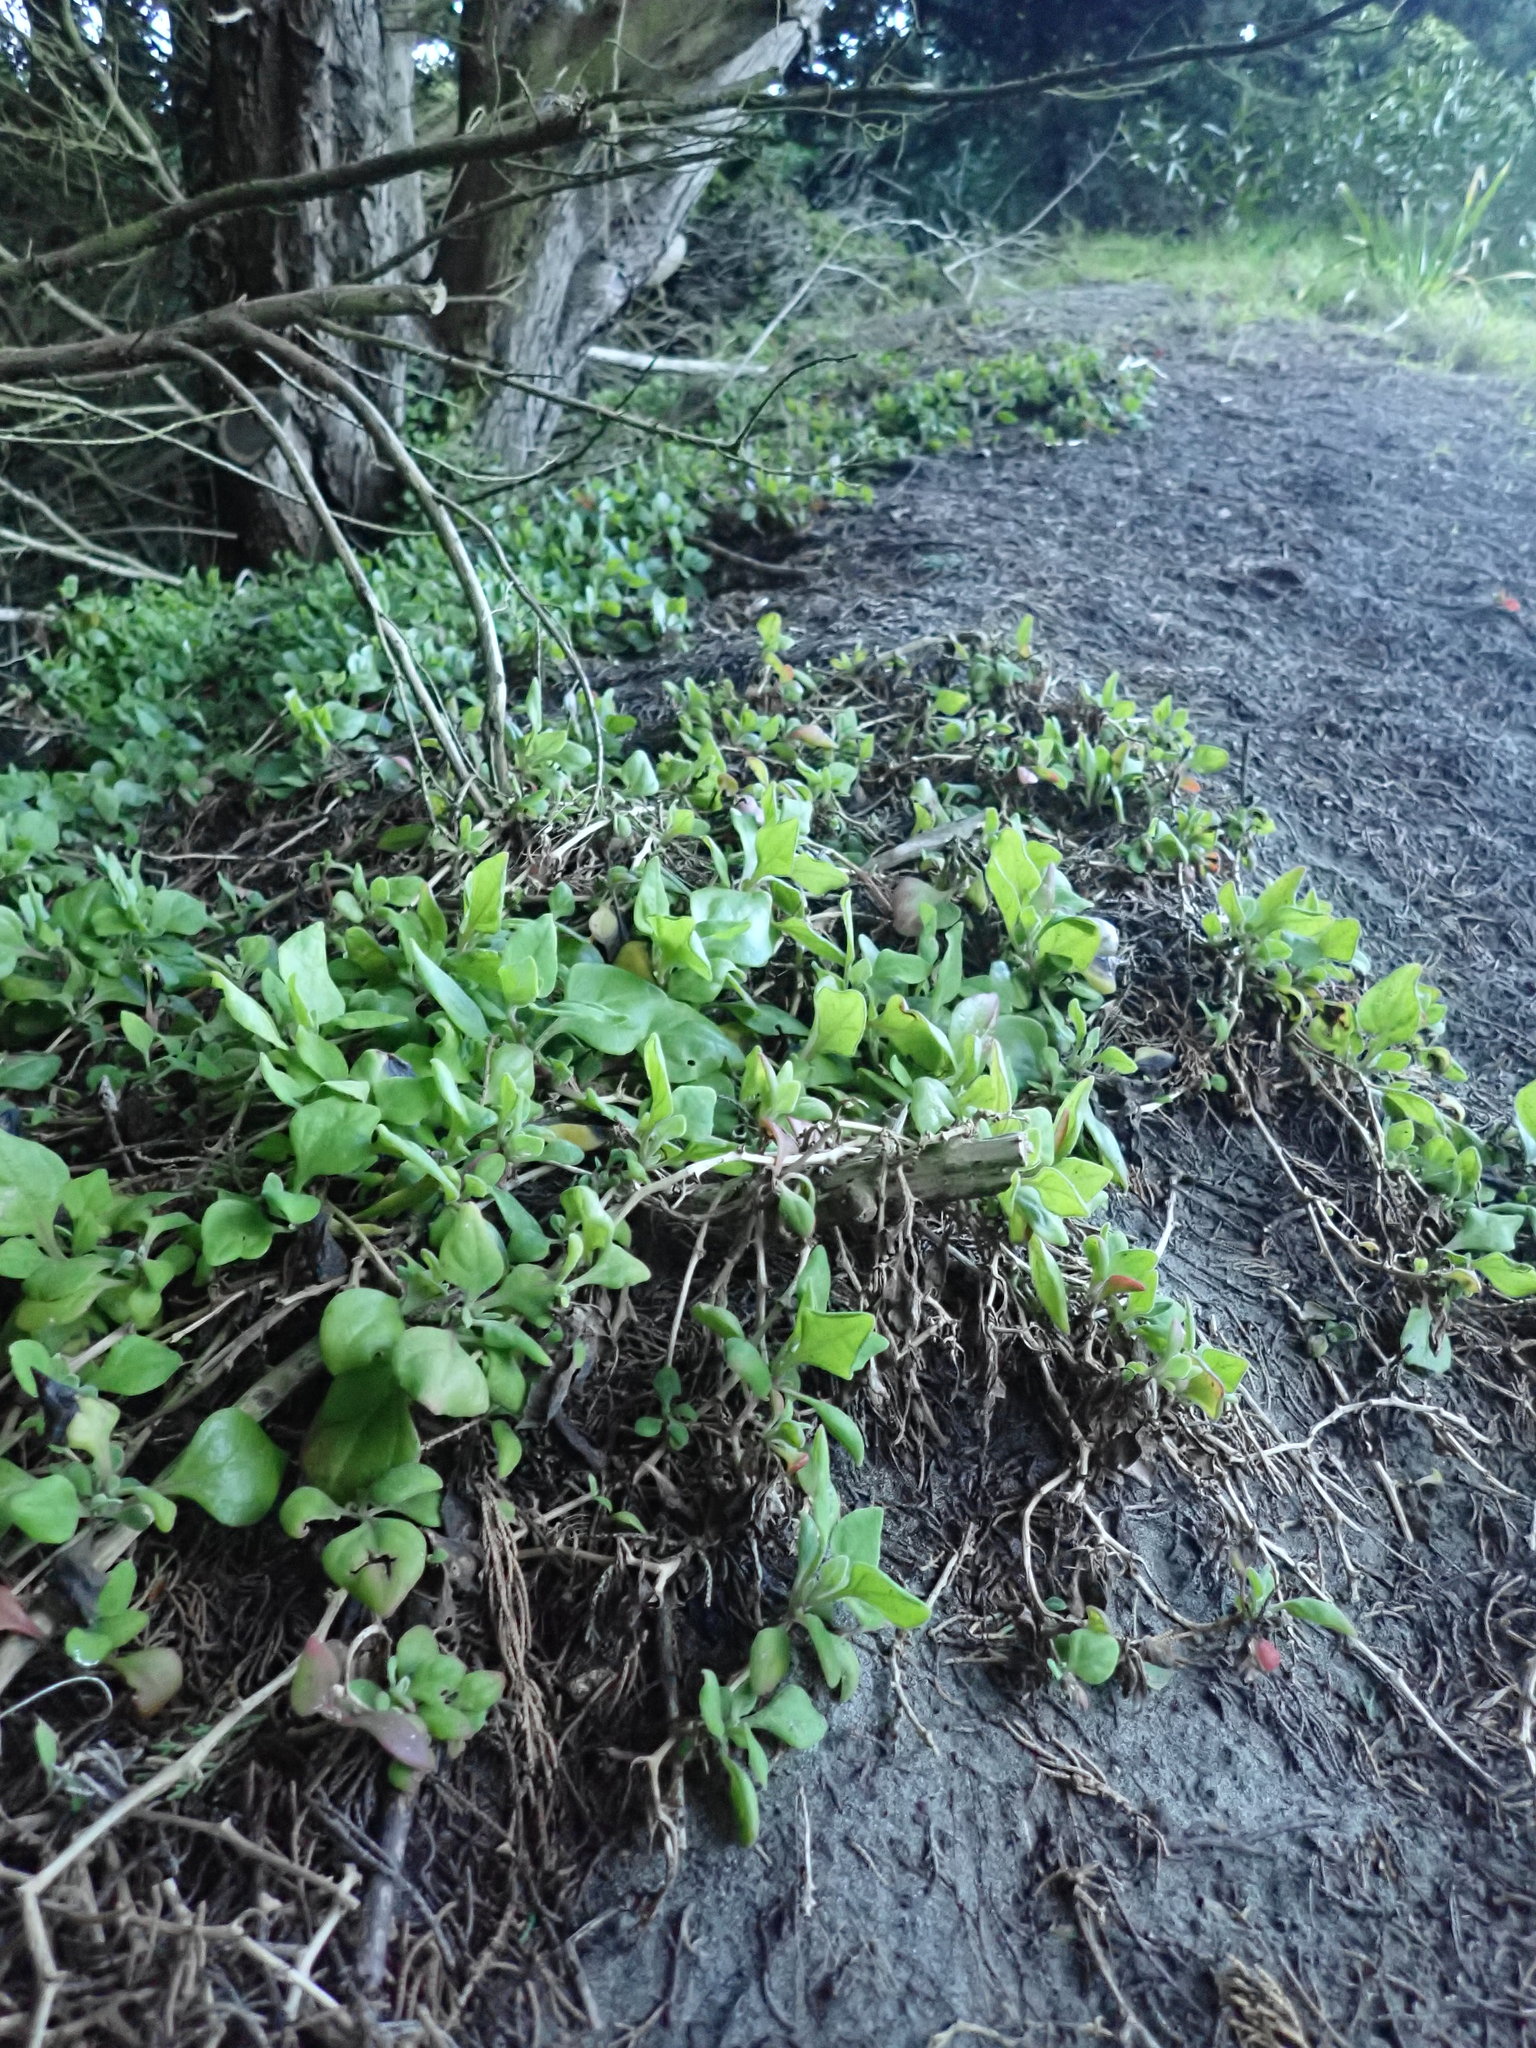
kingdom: Plantae
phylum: Tracheophyta
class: Magnoliopsida
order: Caryophyllales
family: Aizoaceae
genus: Tetragonia
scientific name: Tetragonia implexicoma
